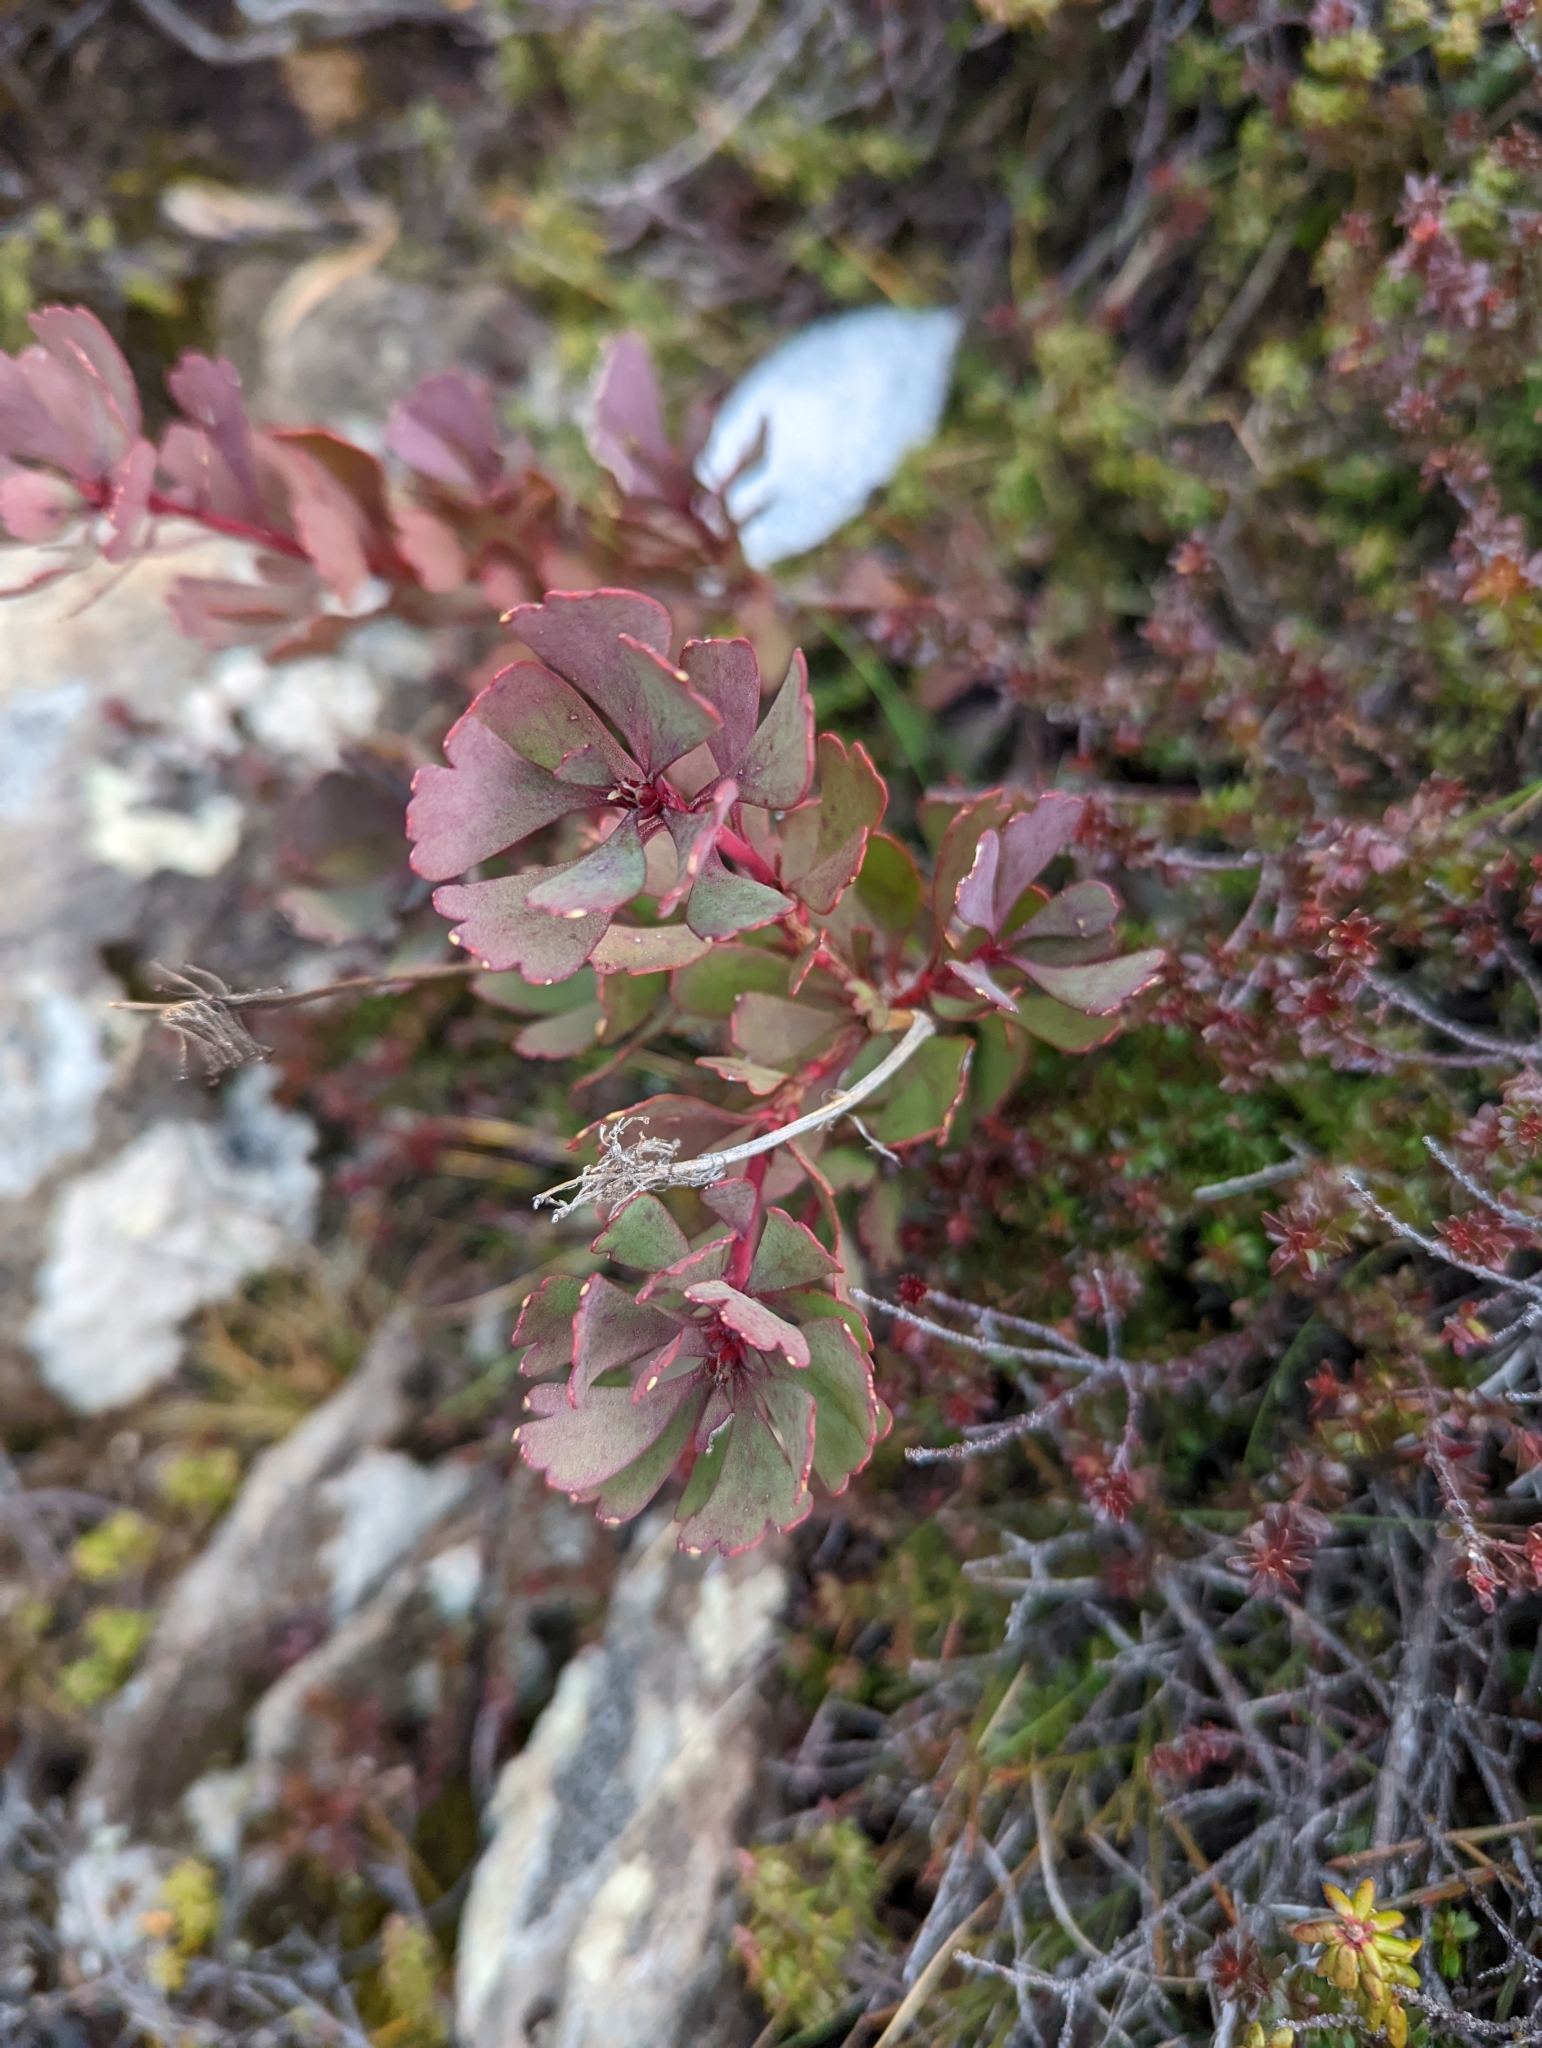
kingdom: Plantae
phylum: Tracheophyta
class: Magnoliopsida
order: Proteales
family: Proteaceae
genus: Bellendena
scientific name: Bellendena montana
